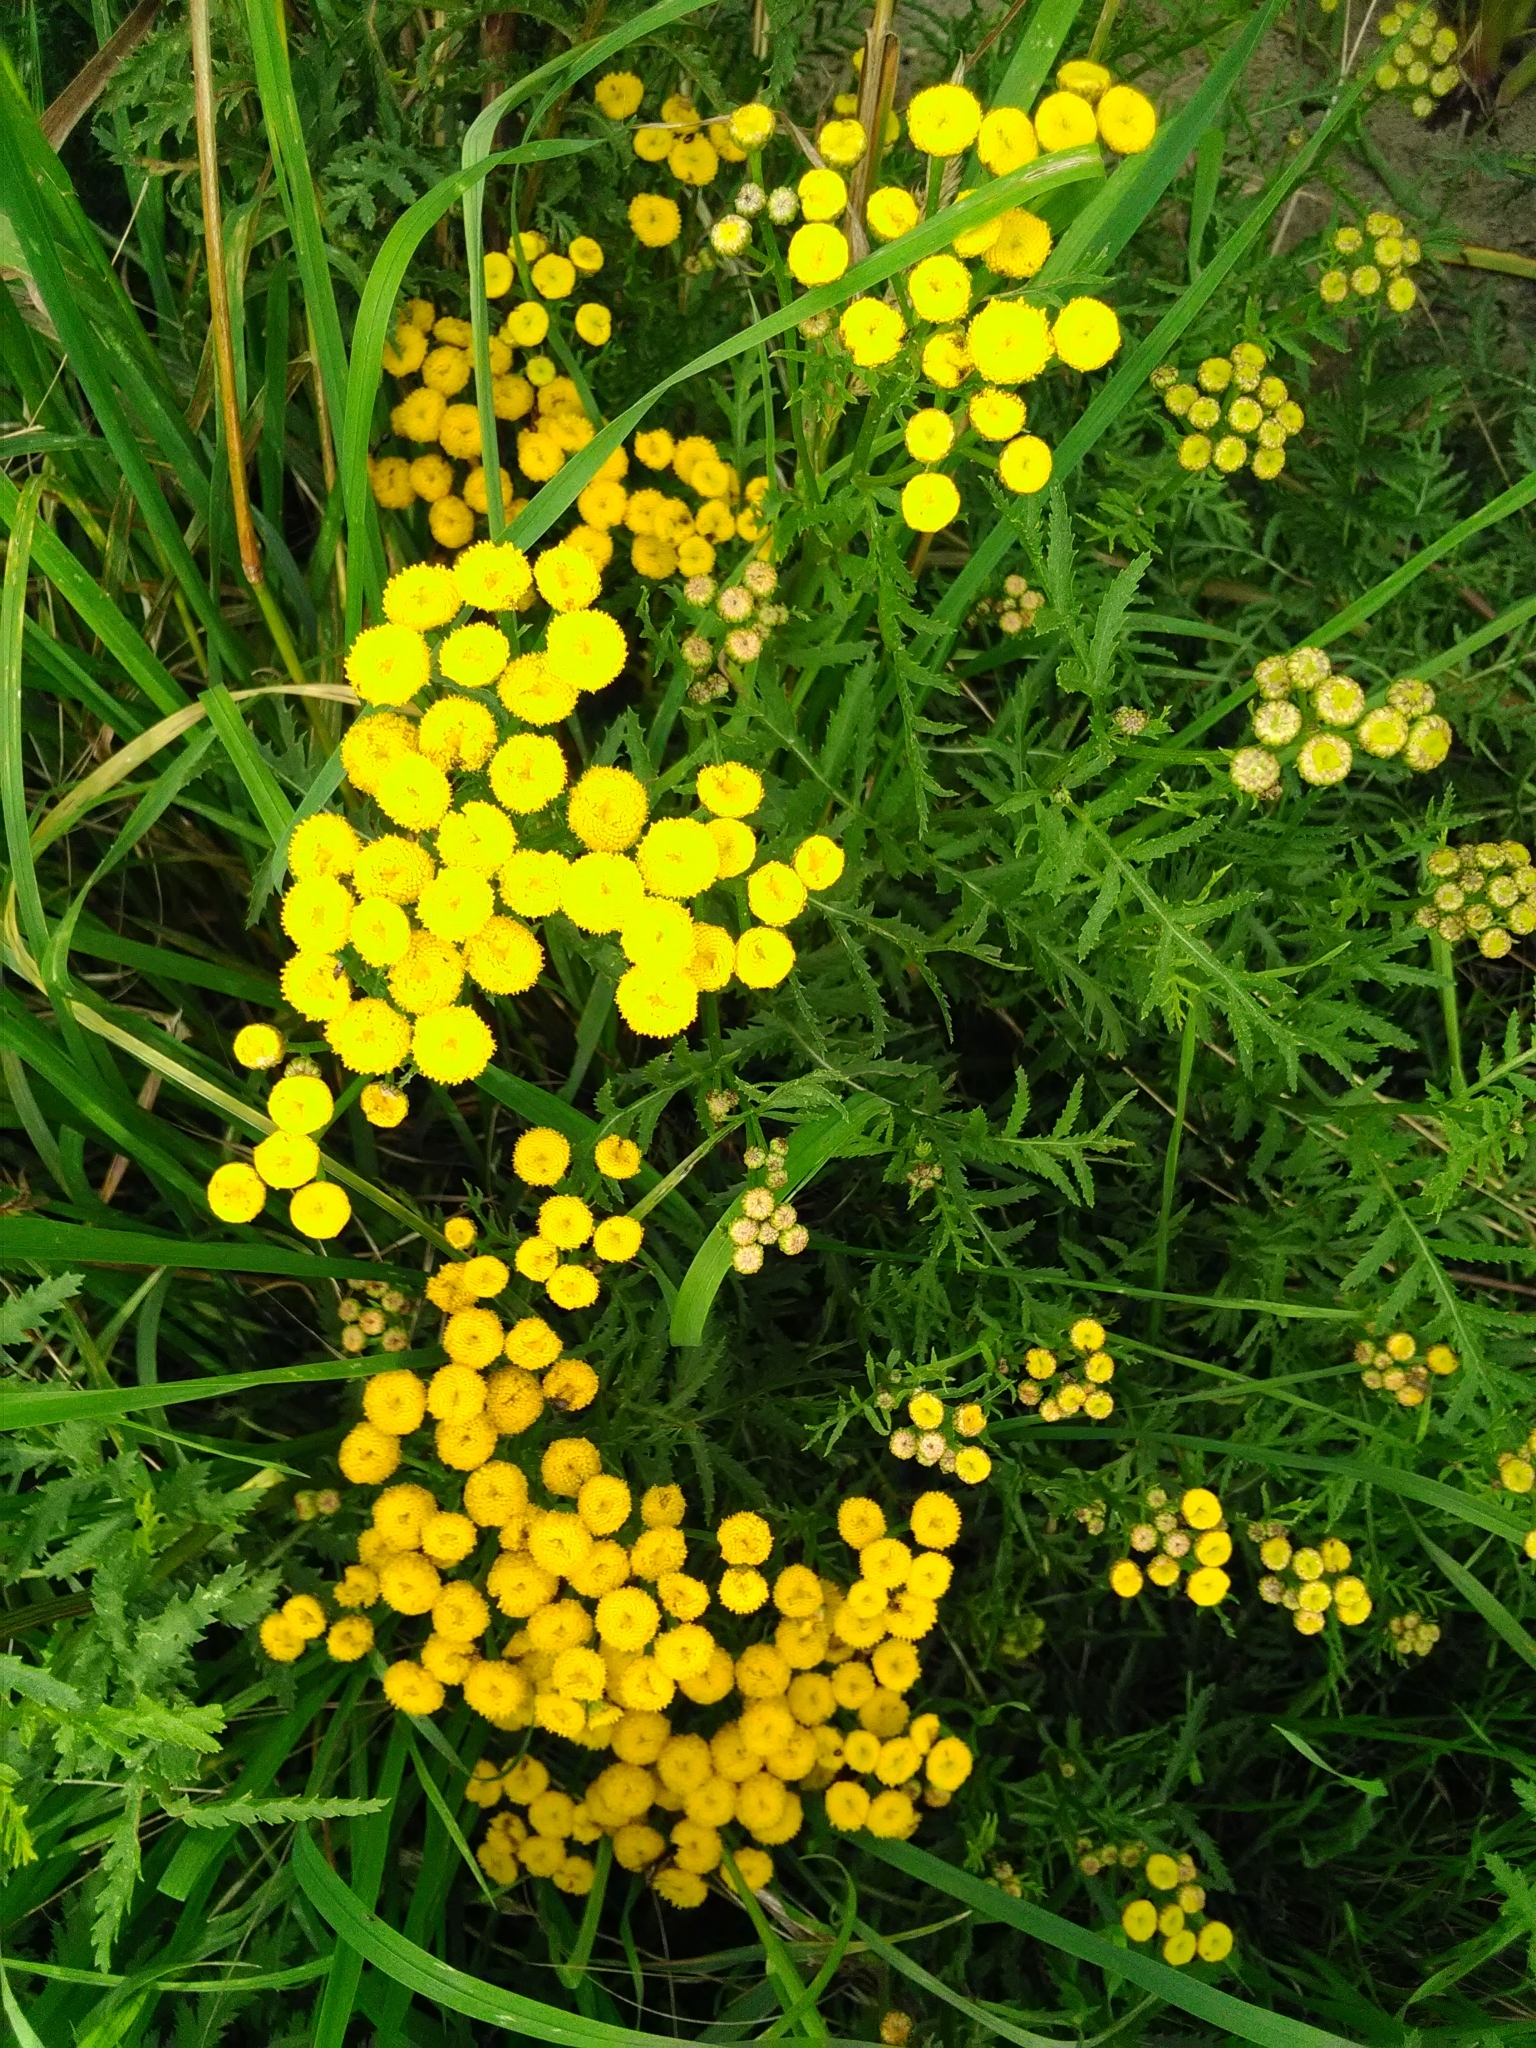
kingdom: Plantae
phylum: Tracheophyta
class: Magnoliopsida
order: Asterales
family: Asteraceae
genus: Tanacetum
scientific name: Tanacetum vulgare
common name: Common tansy
